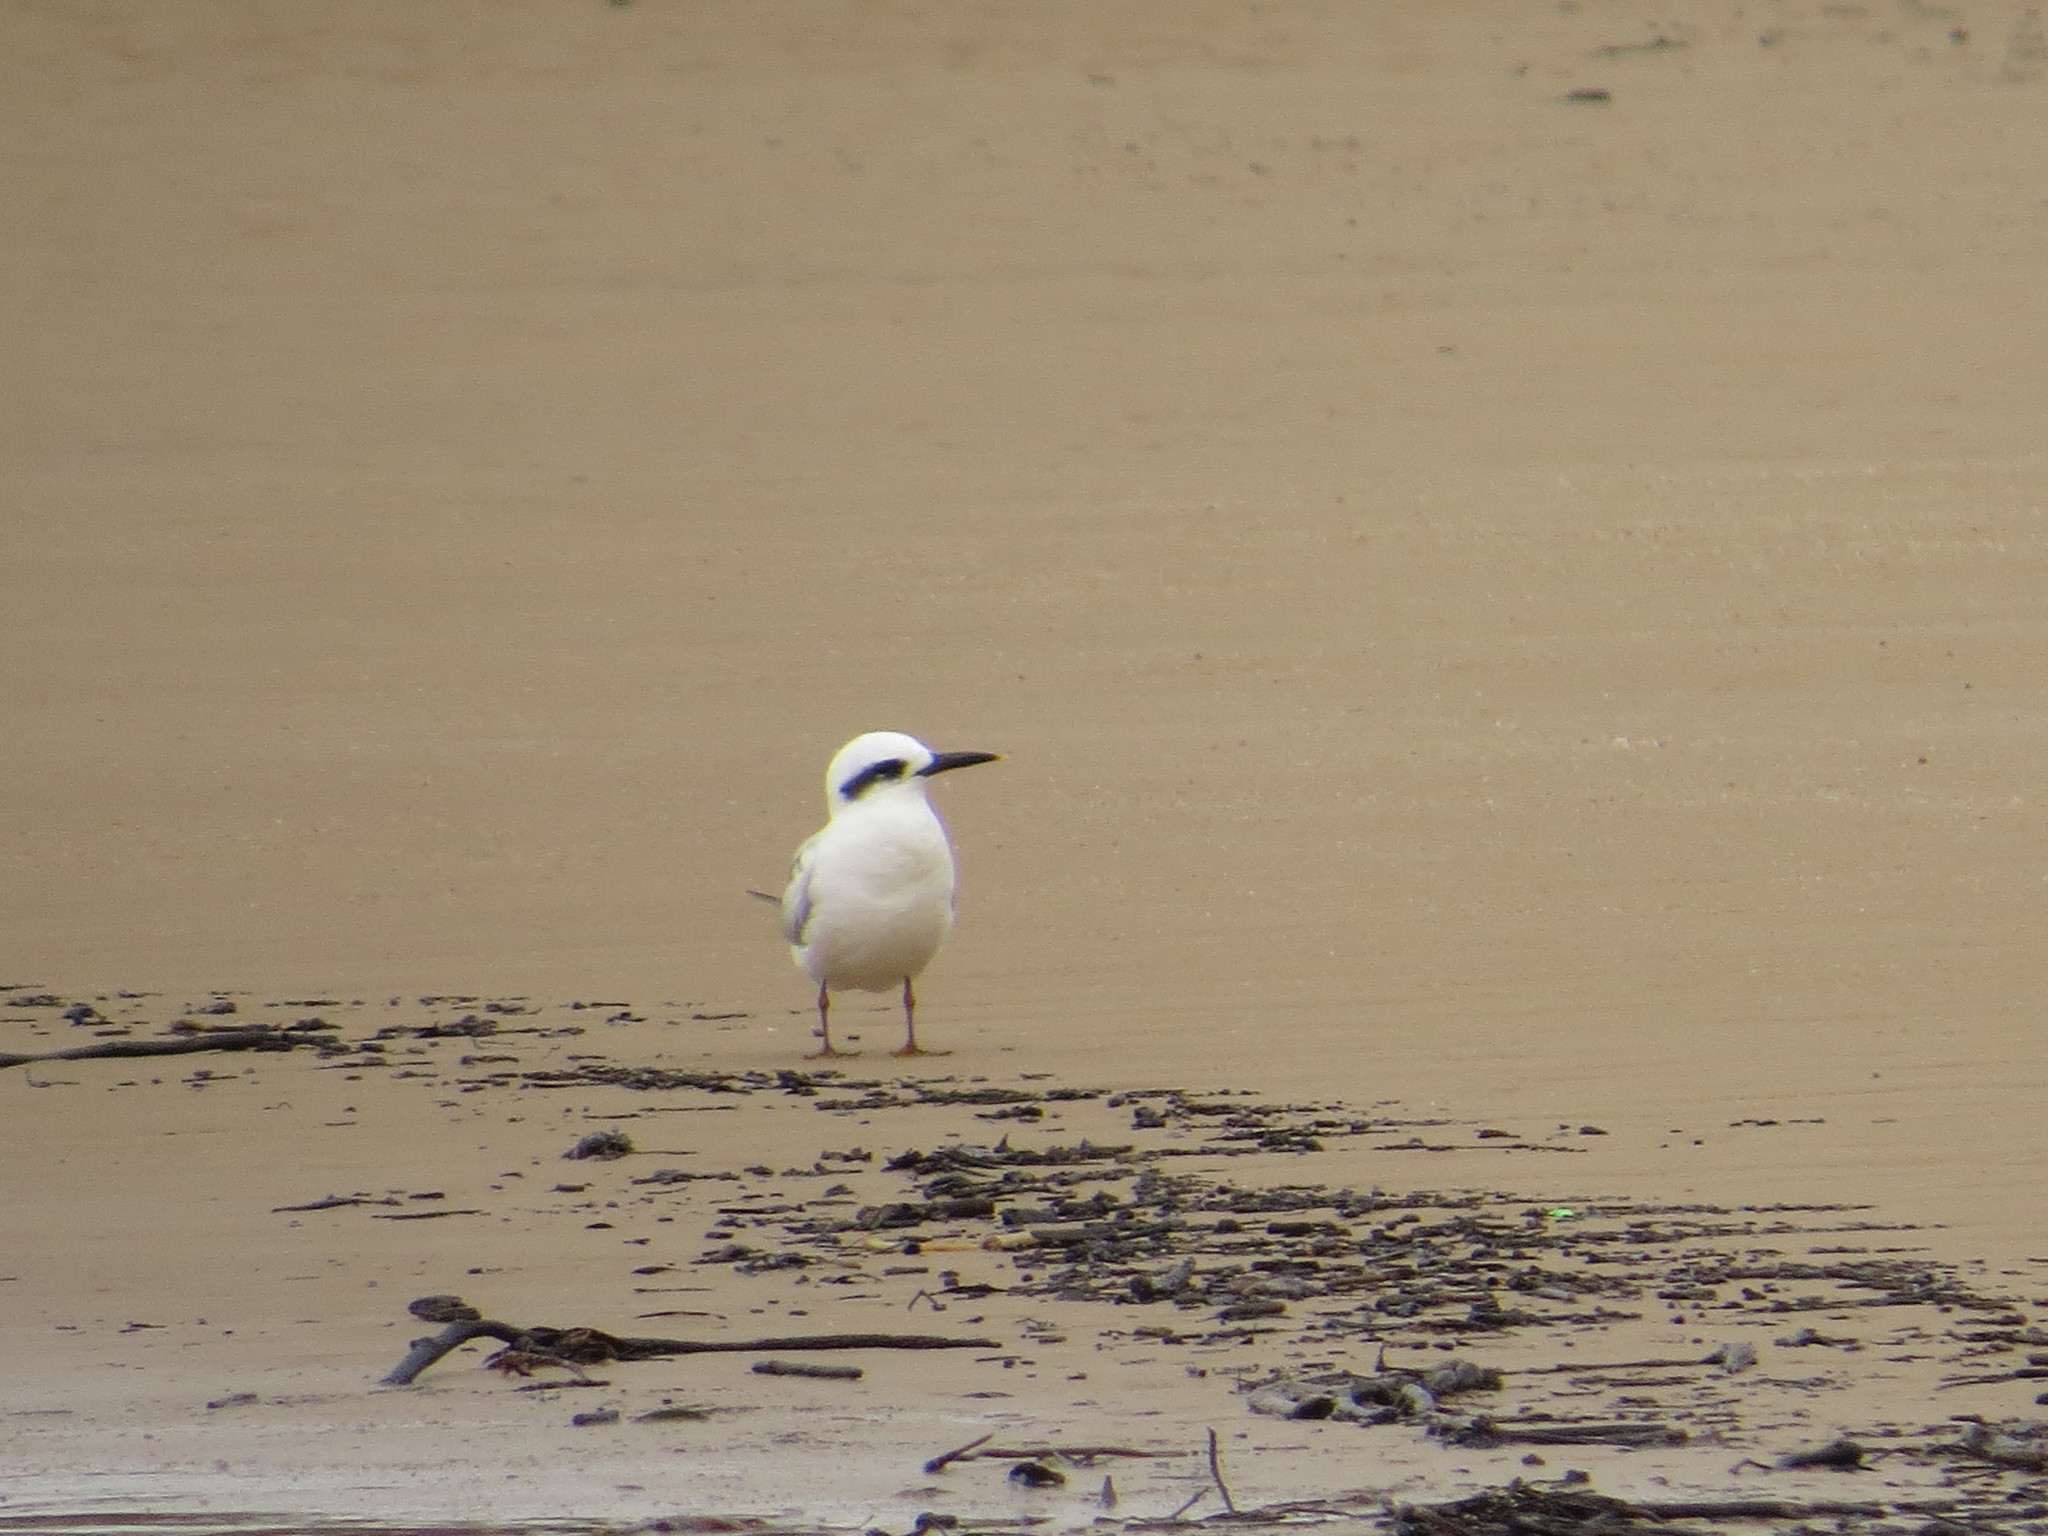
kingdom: Animalia
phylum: Chordata
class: Aves
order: Charadriiformes
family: Laridae
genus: Sterna
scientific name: Sterna trudeaui
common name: Snowy-crowned tern
